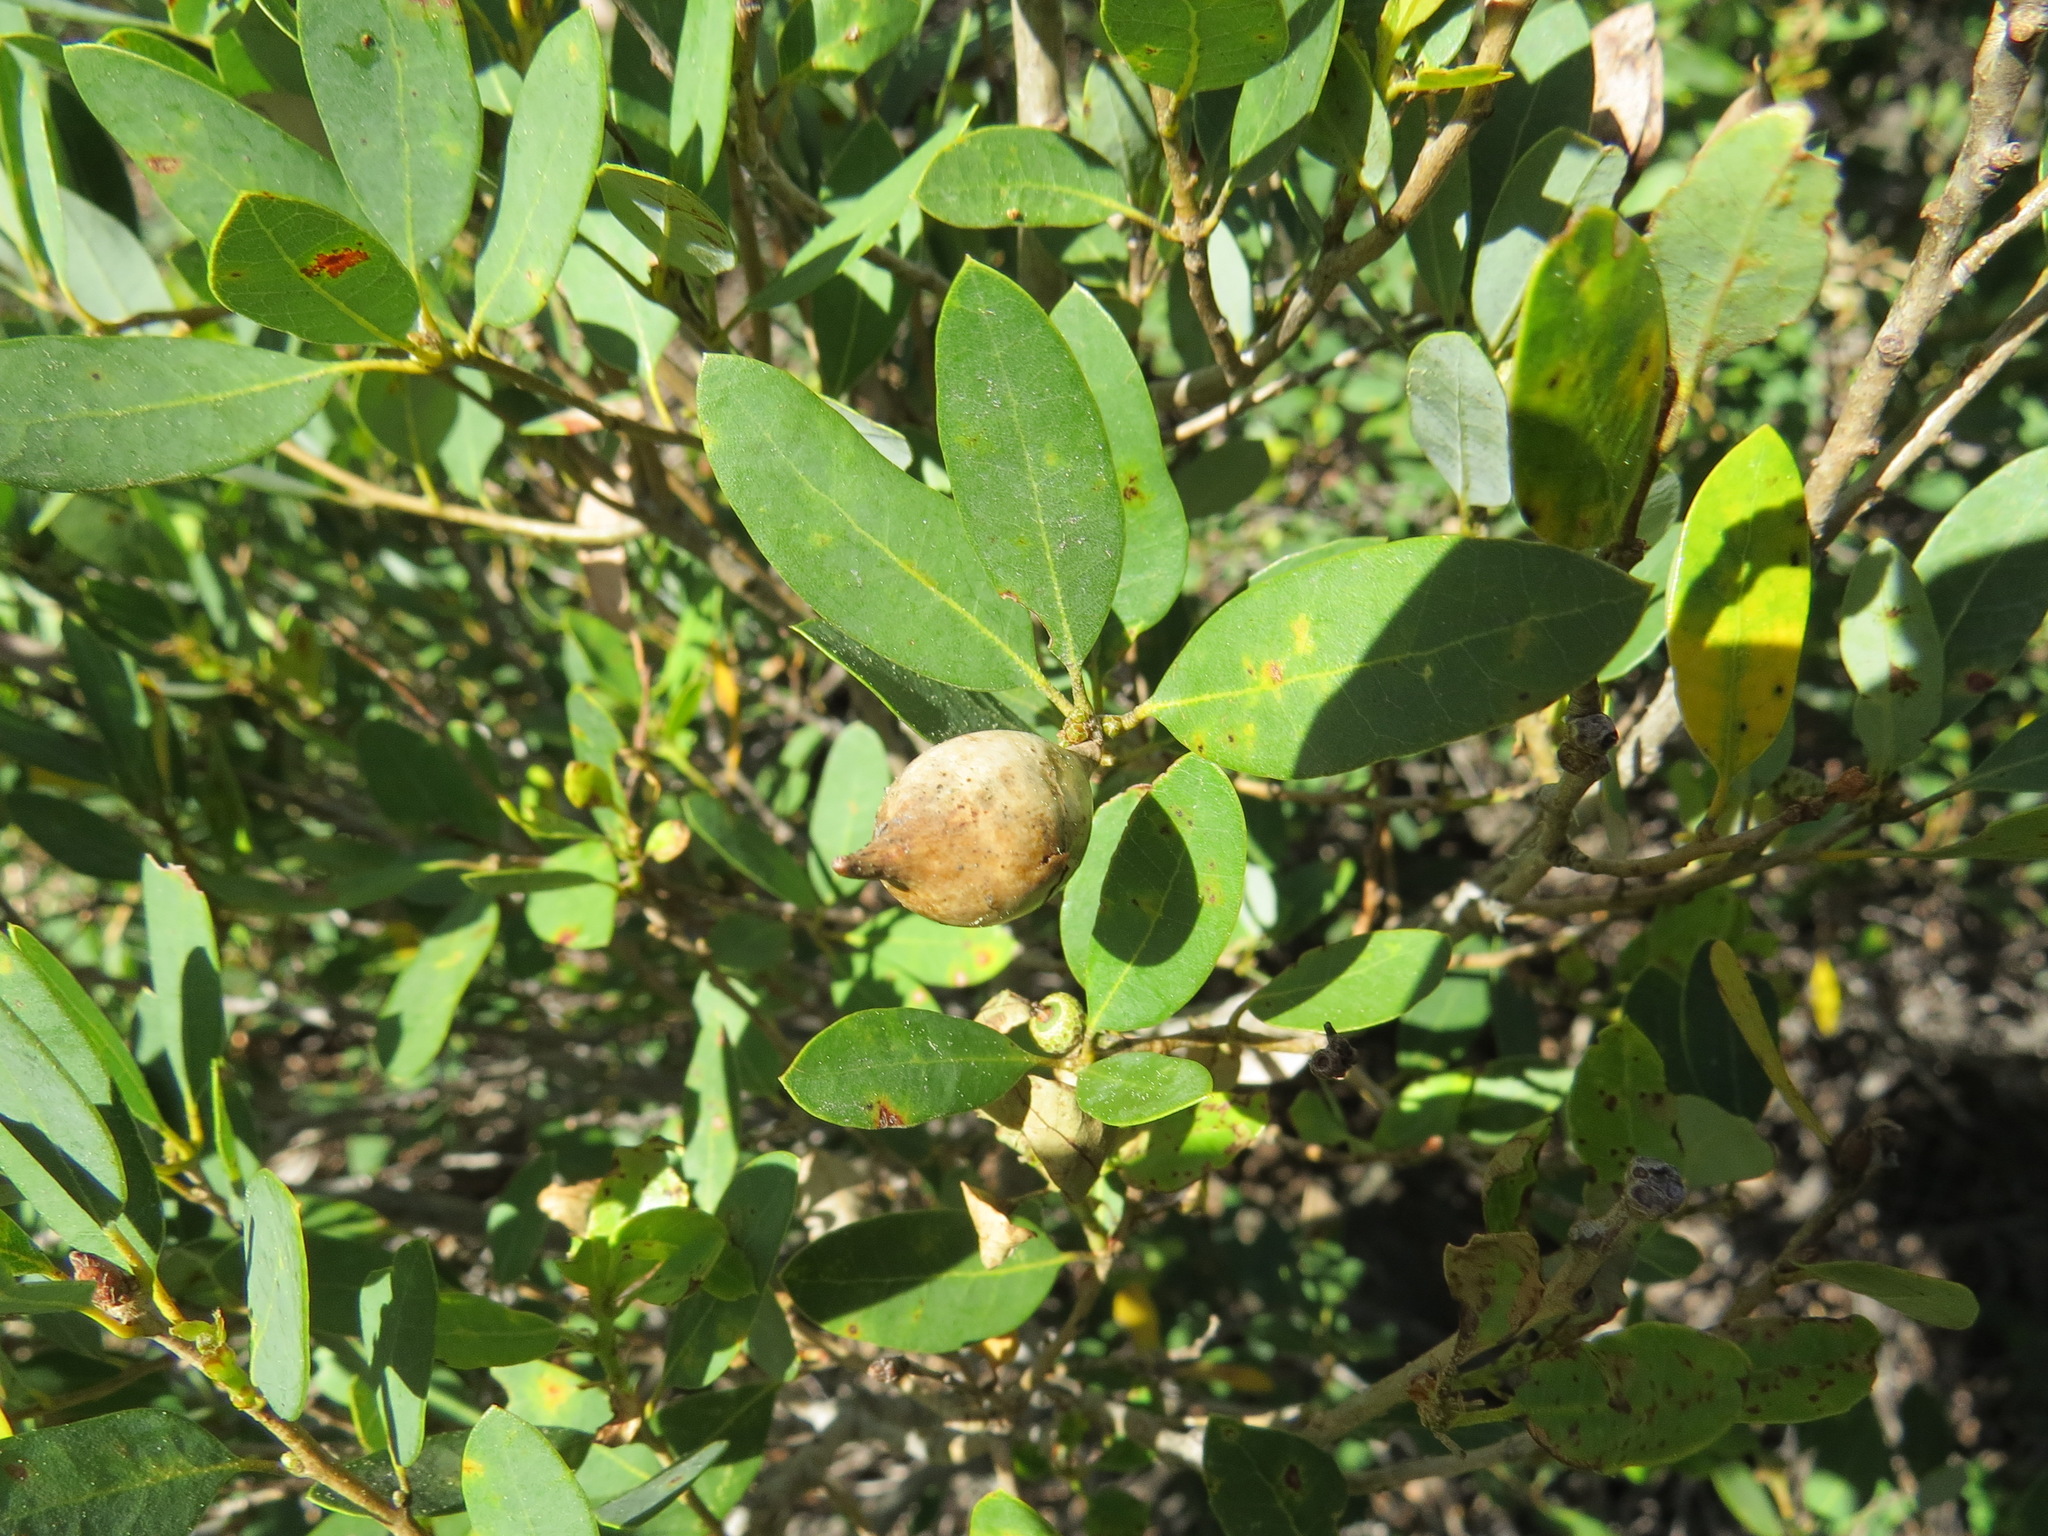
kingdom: Animalia
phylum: Arthropoda
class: Insecta
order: Hymenoptera
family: Cynipidae
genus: Heteroecus
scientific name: Heteroecus pacificus
